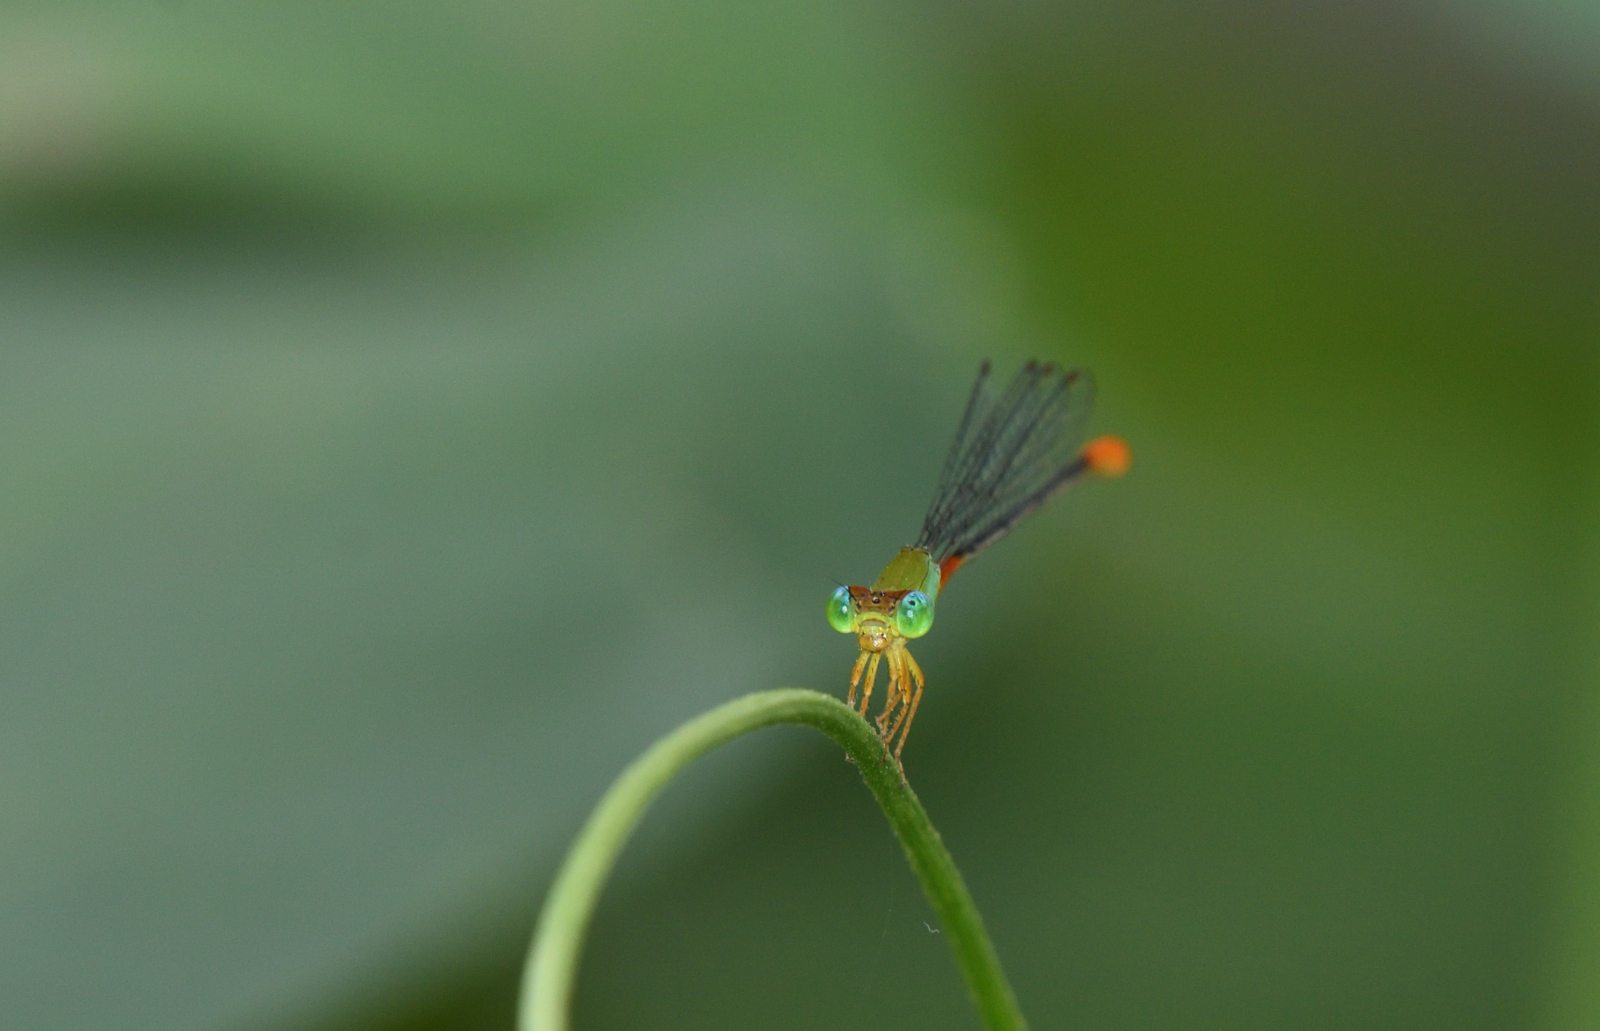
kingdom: Animalia
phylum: Arthropoda
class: Insecta
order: Odonata
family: Coenagrionidae
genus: Ceriagrion
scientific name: Ceriagrion cerinorubellum
